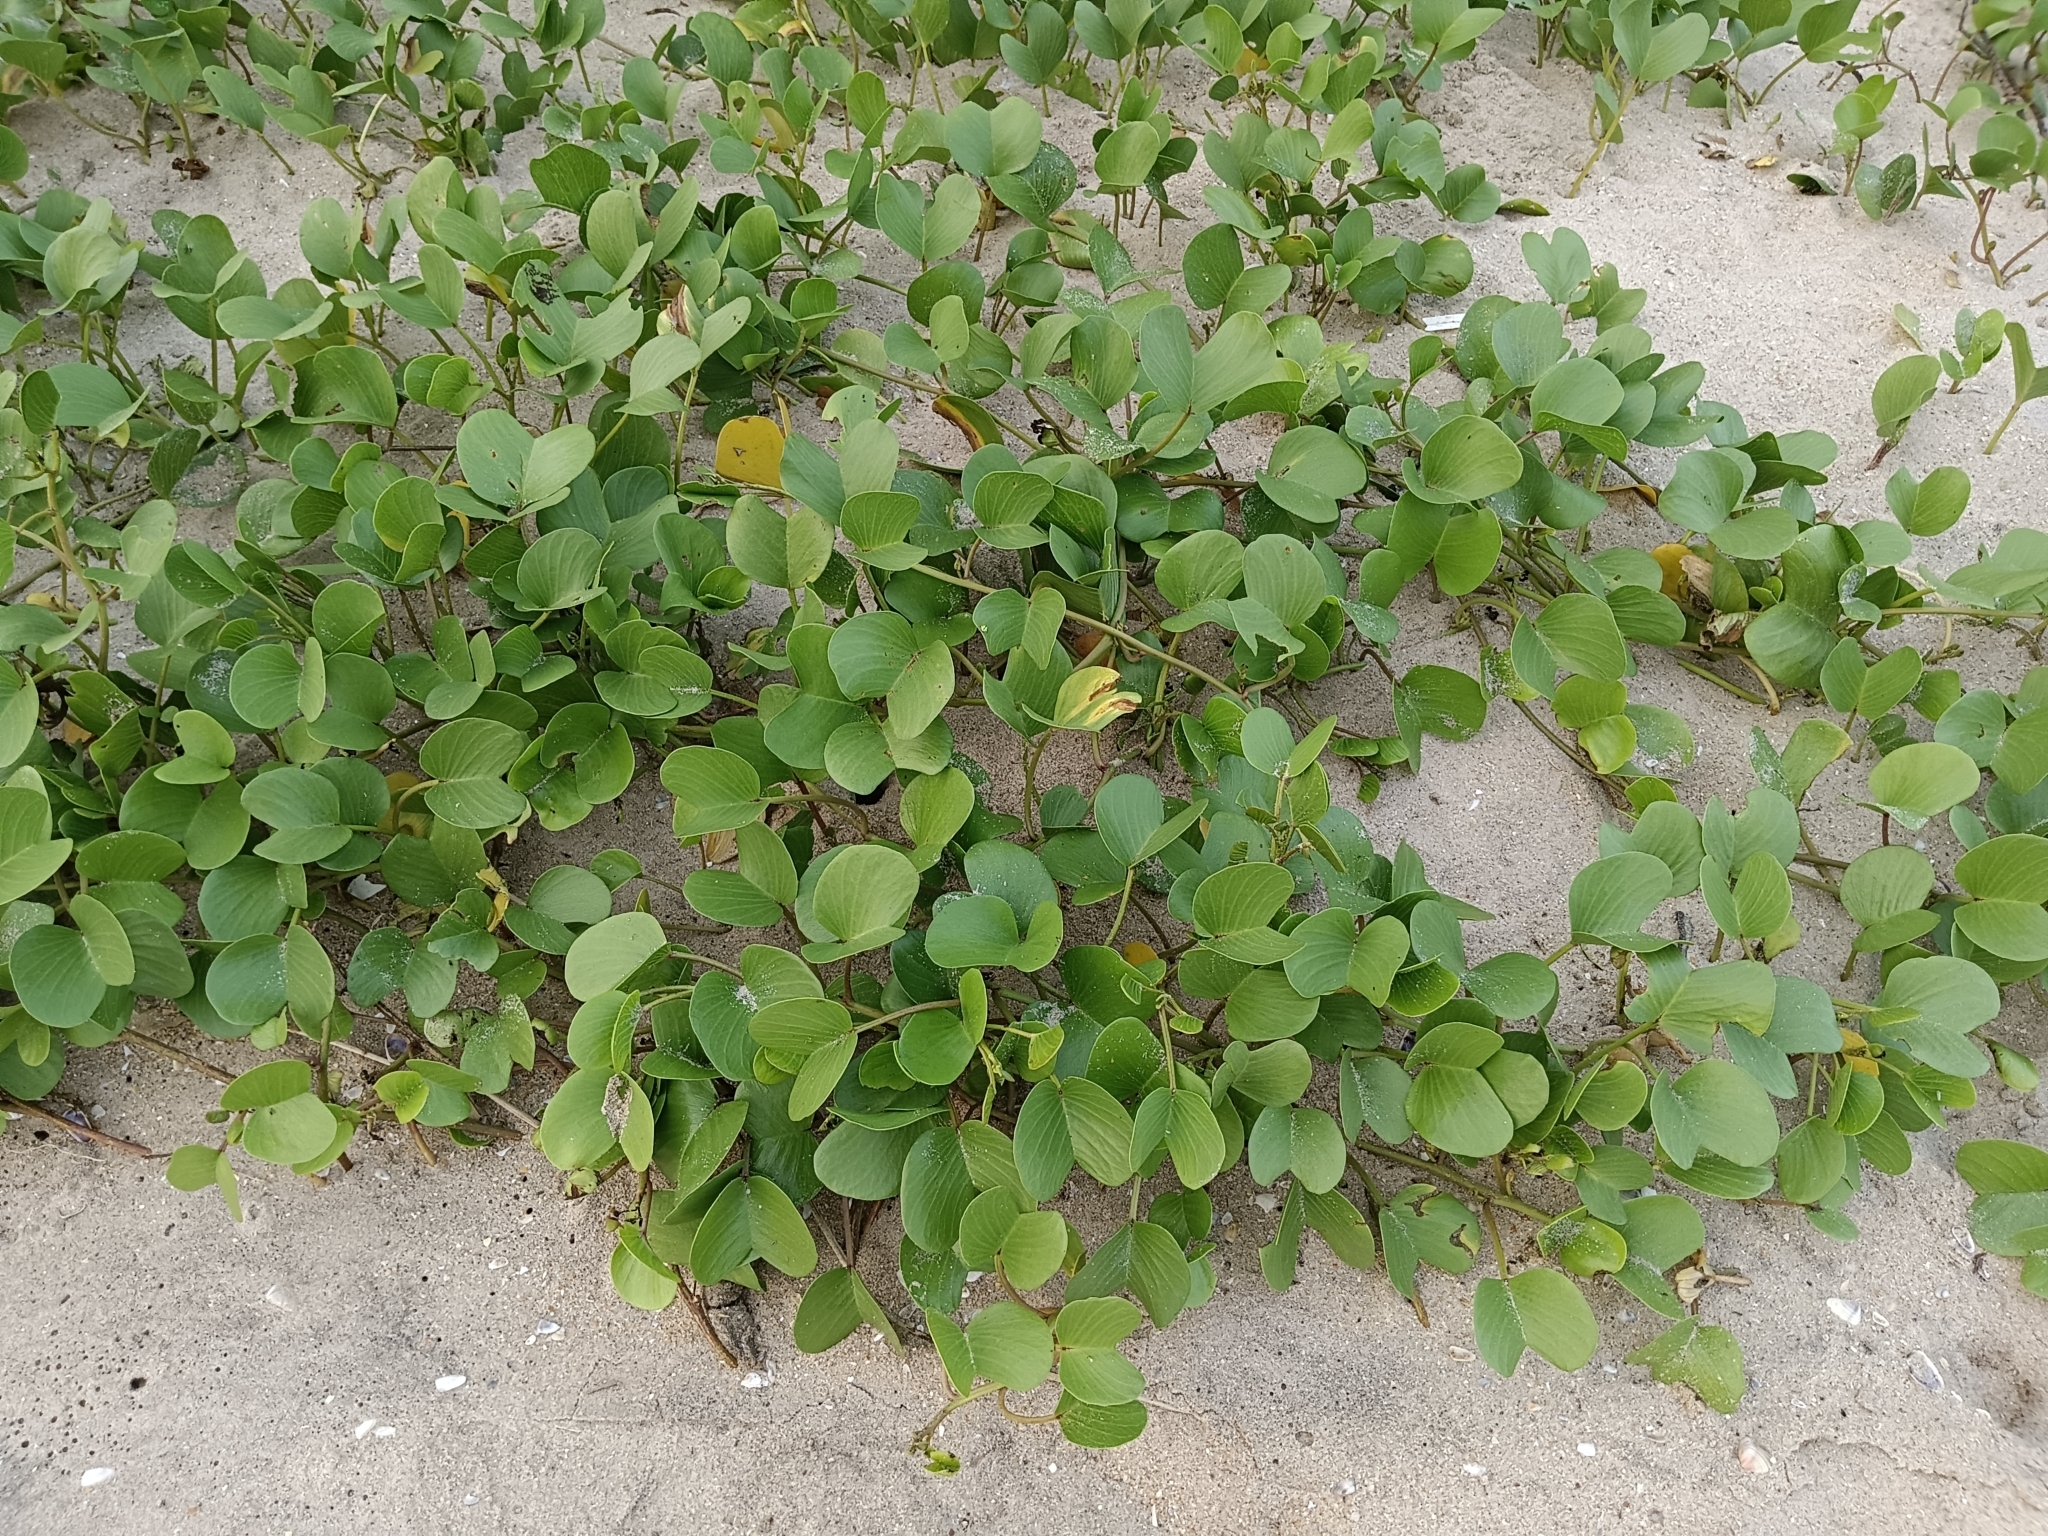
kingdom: Plantae
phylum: Tracheophyta
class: Magnoliopsida
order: Solanales
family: Convolvulaceae
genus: Ipomoea
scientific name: Ipomoea pes-caprae
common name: Beach morning glory
